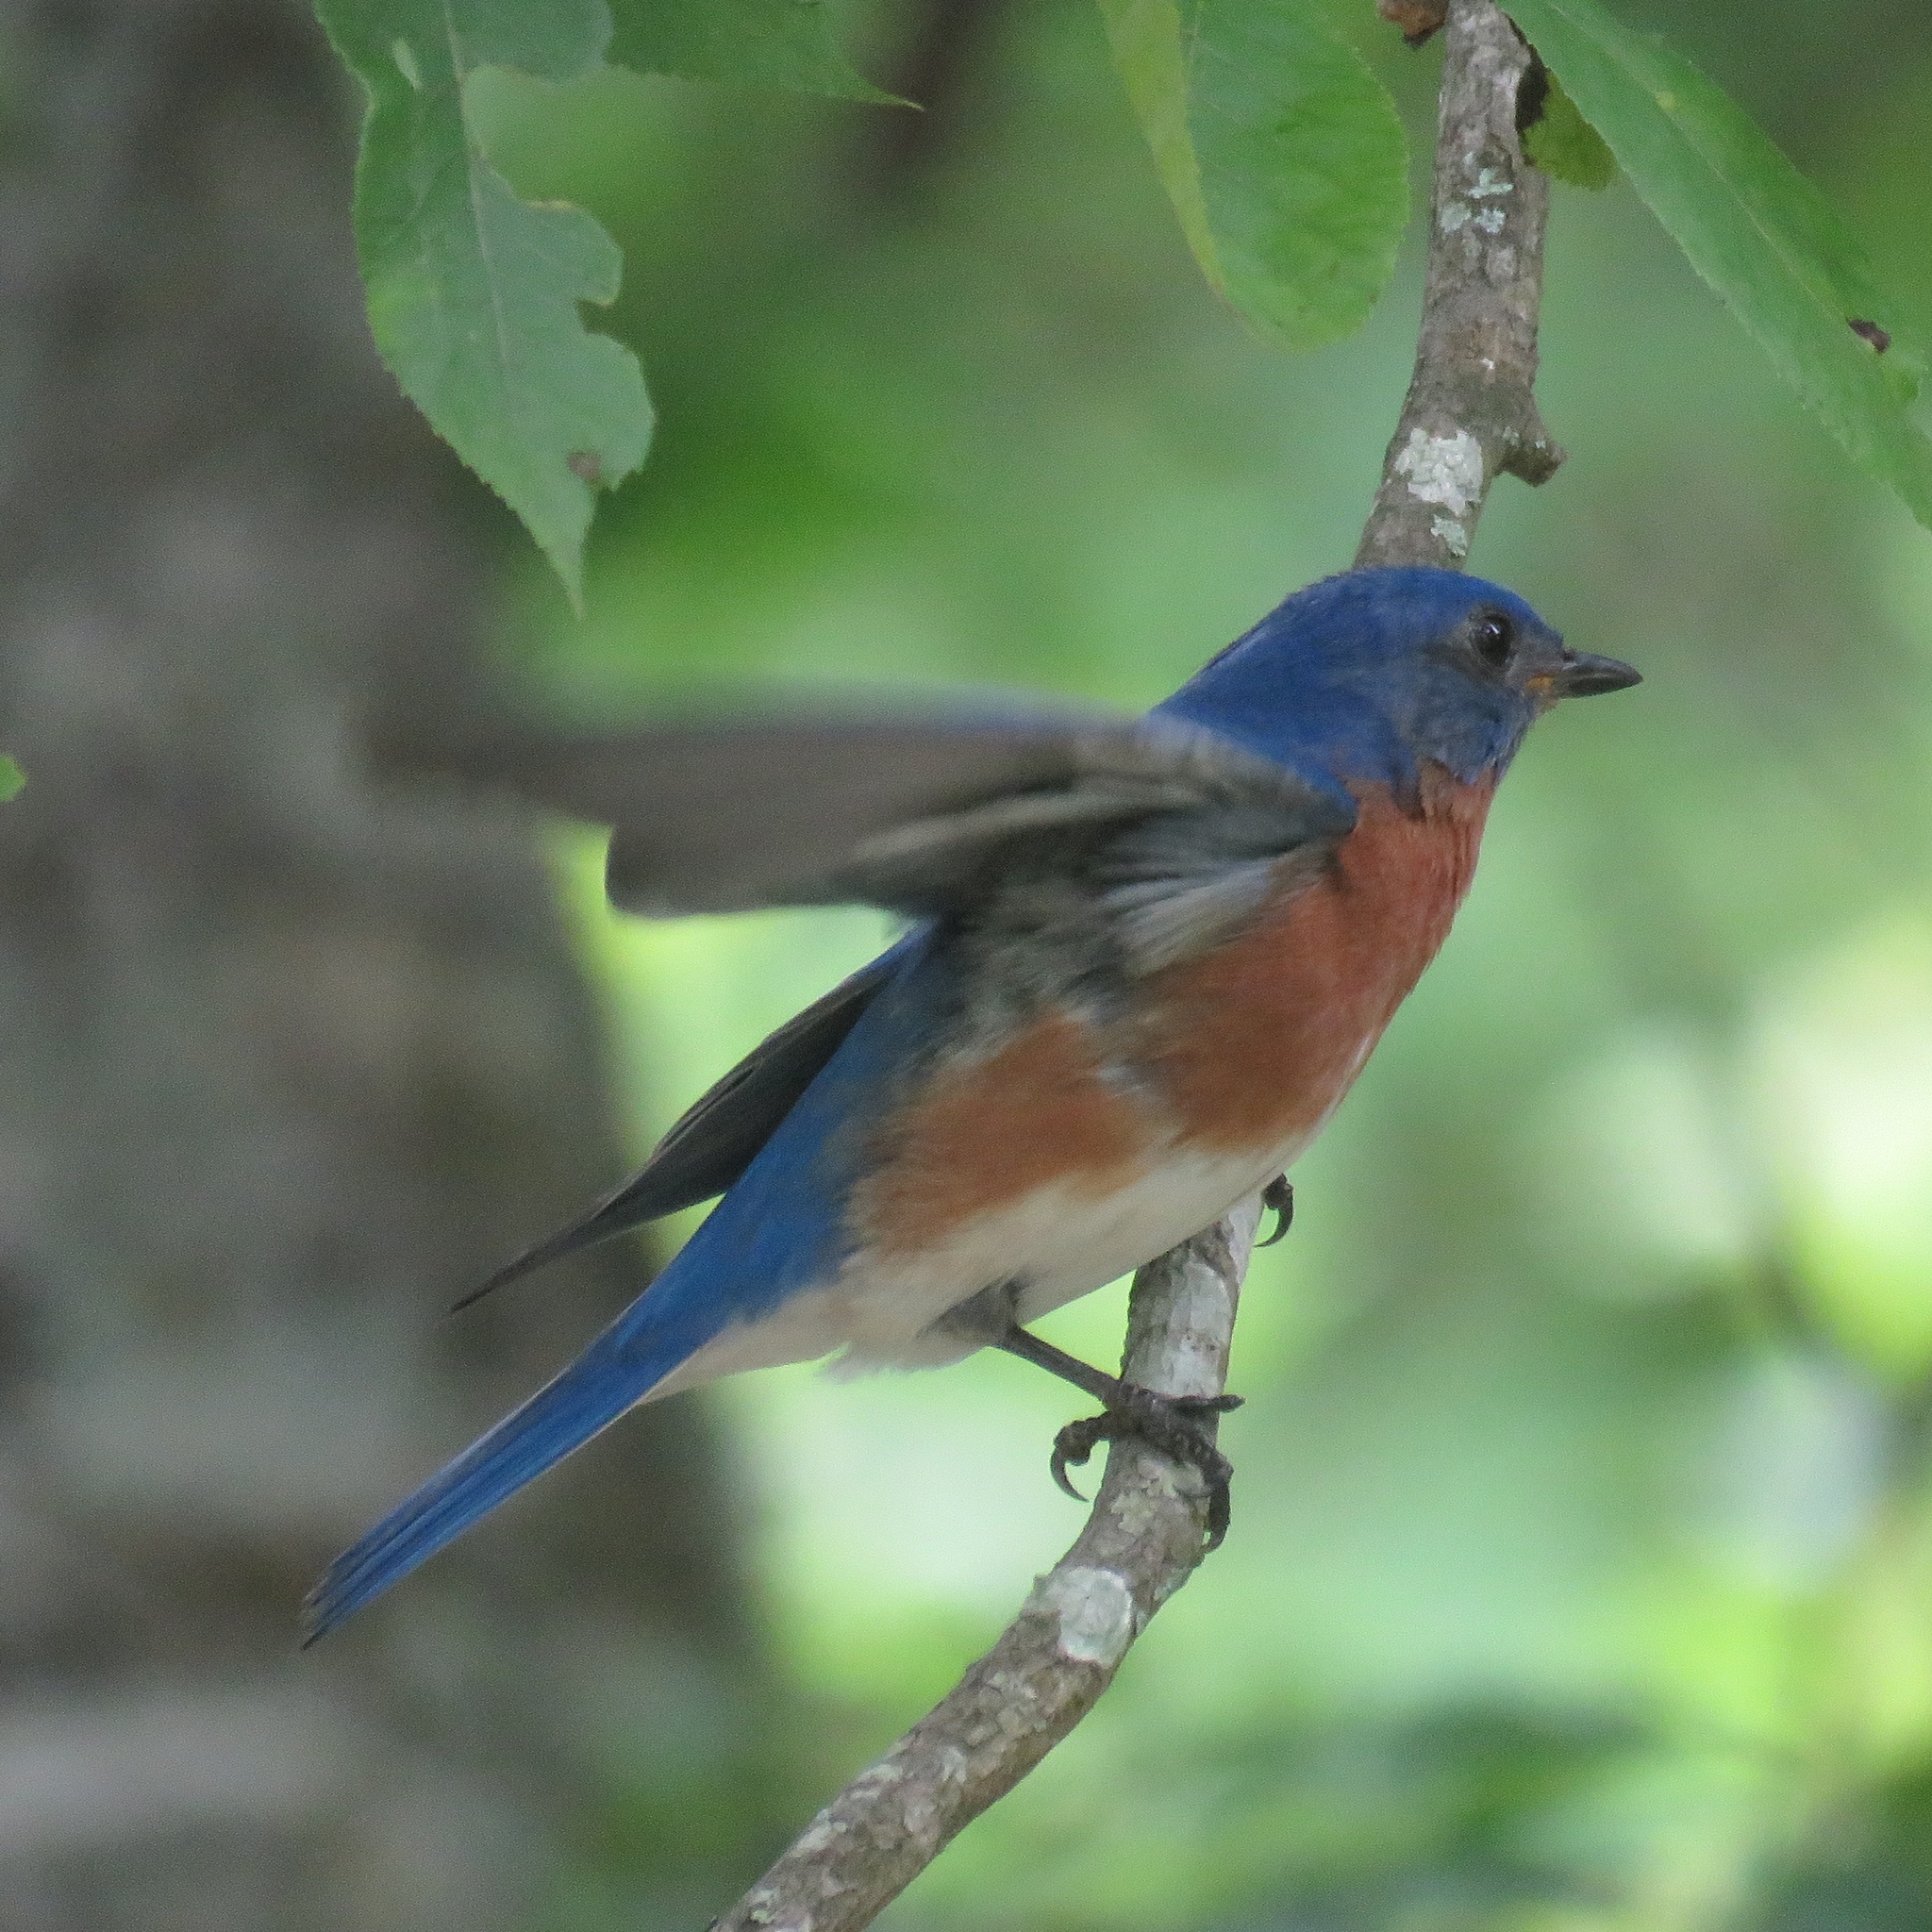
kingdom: Animalia
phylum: Chordata
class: Aves
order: Passeriformes
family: Turdidae
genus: Sialia
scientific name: Sialia sialis
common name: Eastern bluebird
